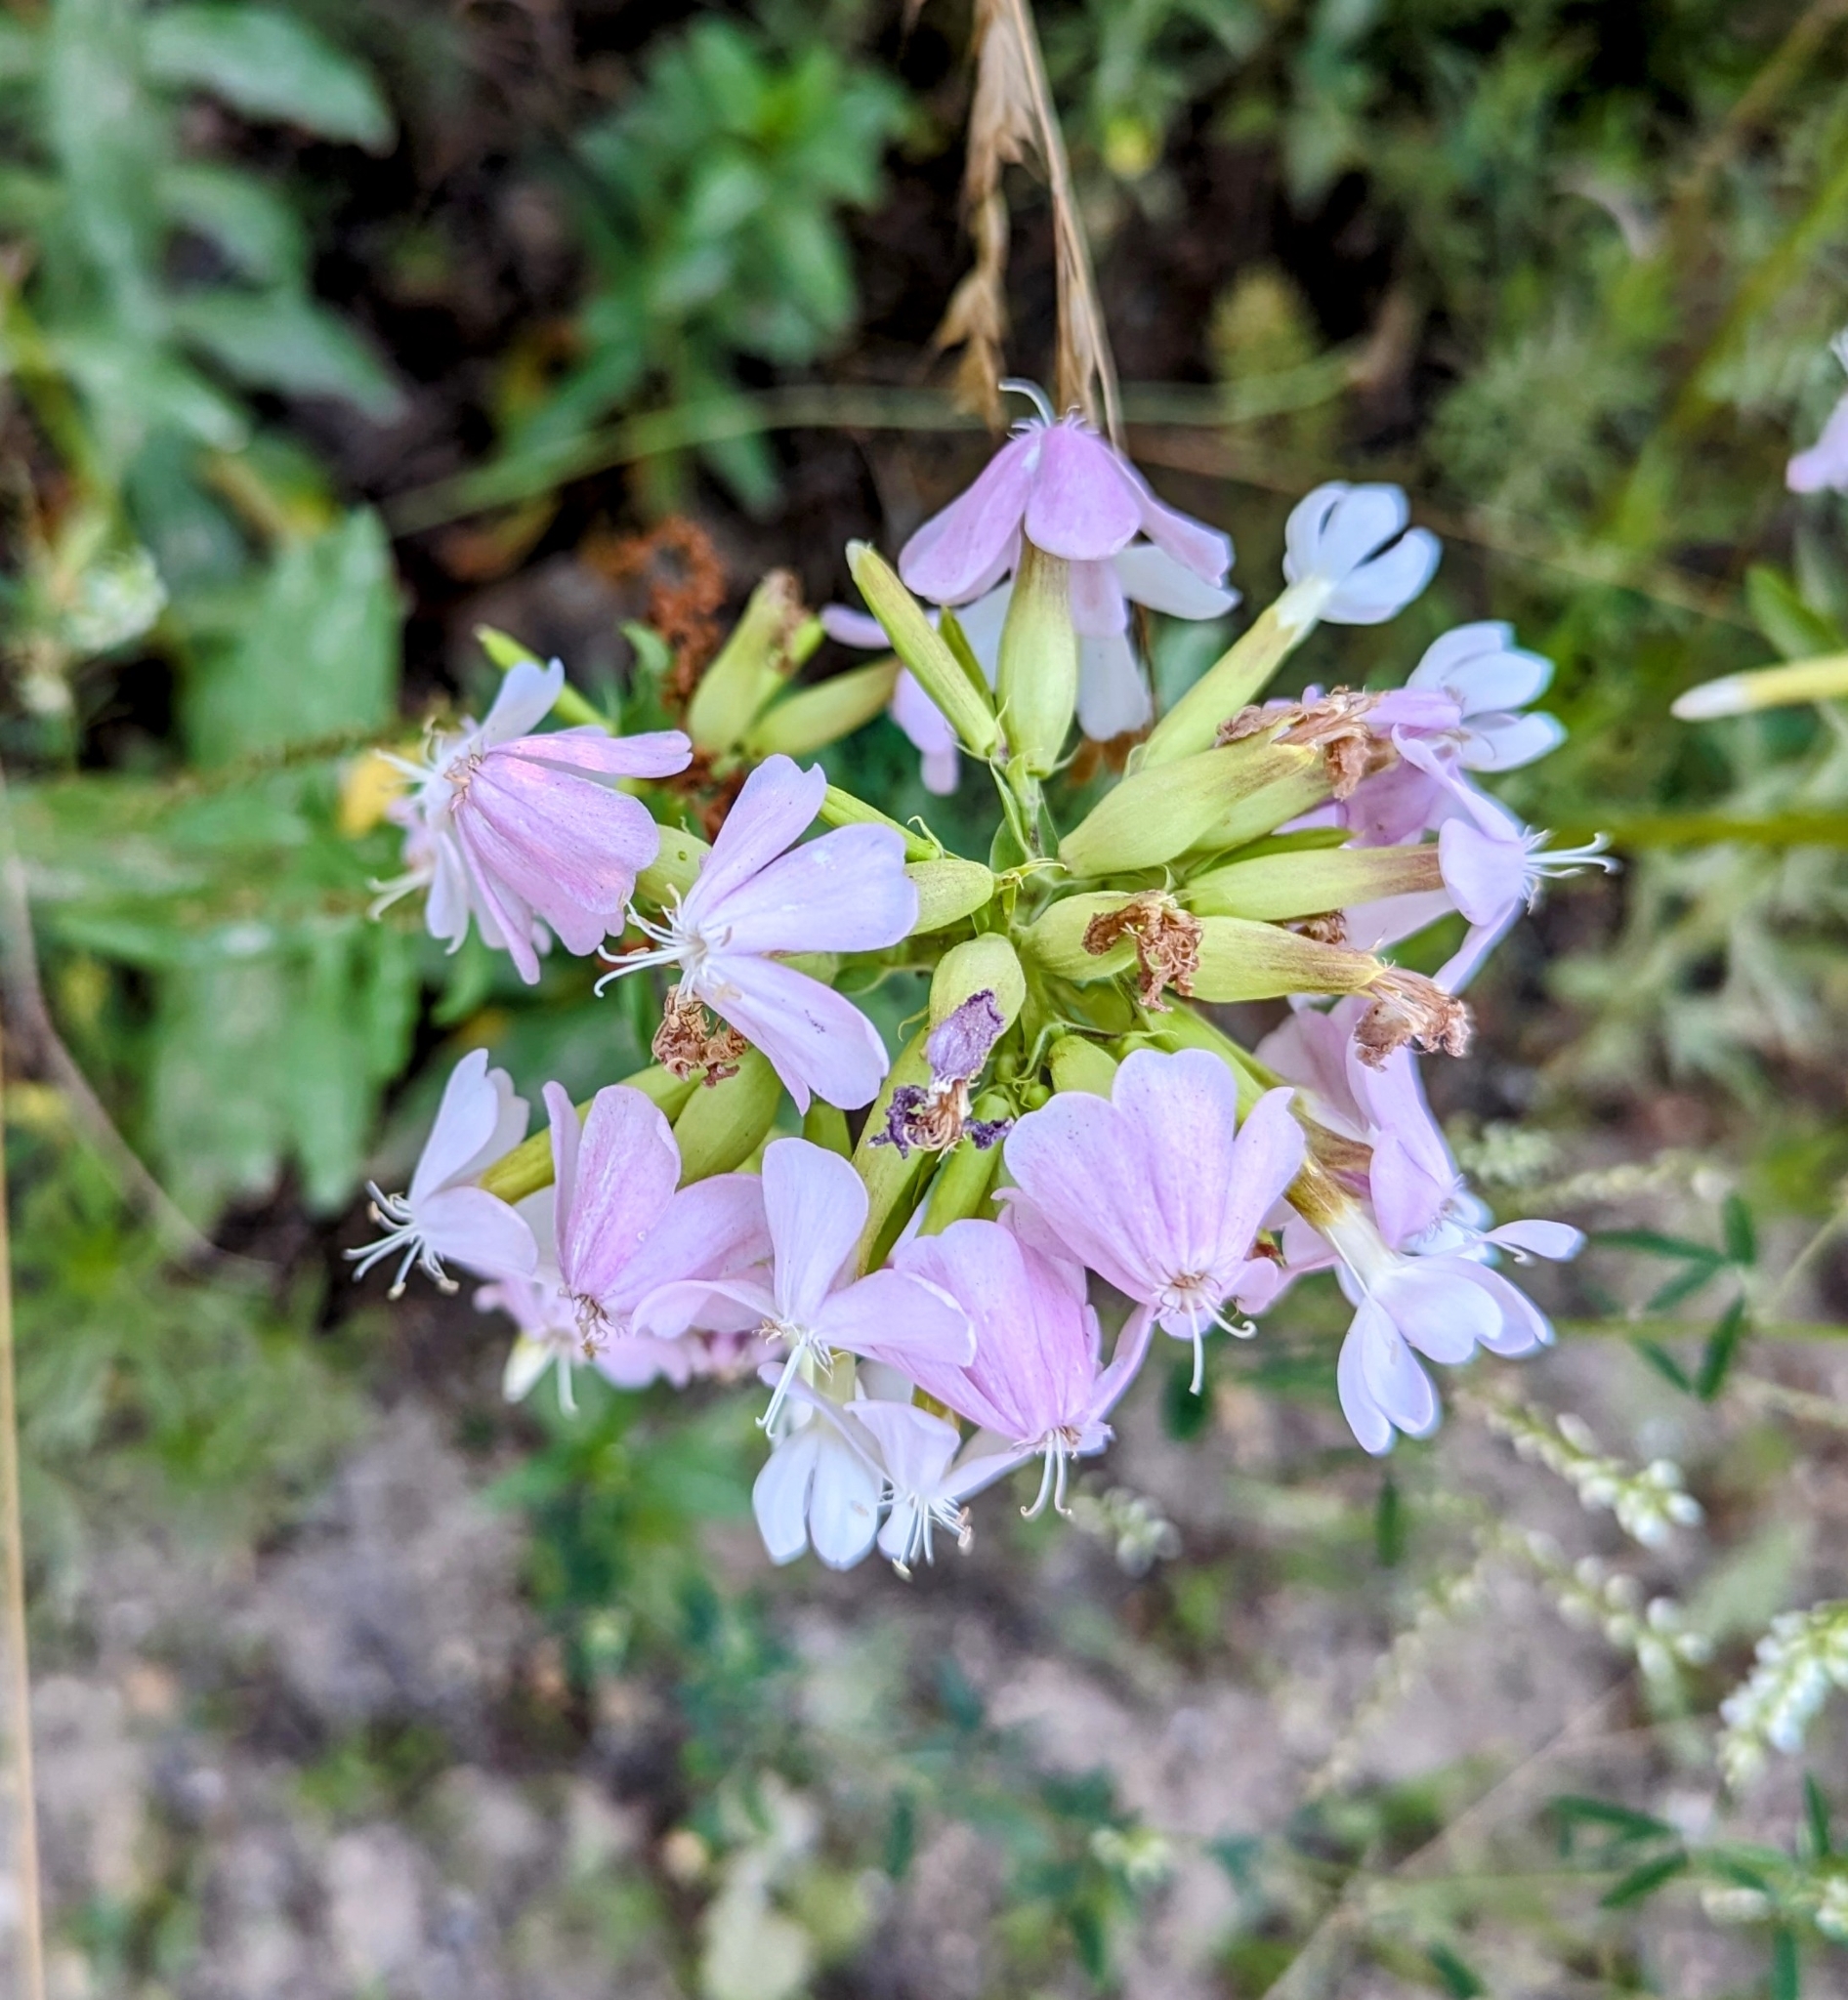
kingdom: Plantae
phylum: Tracheophyta
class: Magnoliopsida
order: Caryophyllales
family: Caryophyllaceae
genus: Saponaria
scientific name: Saponaria officinalis
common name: Soapwort
